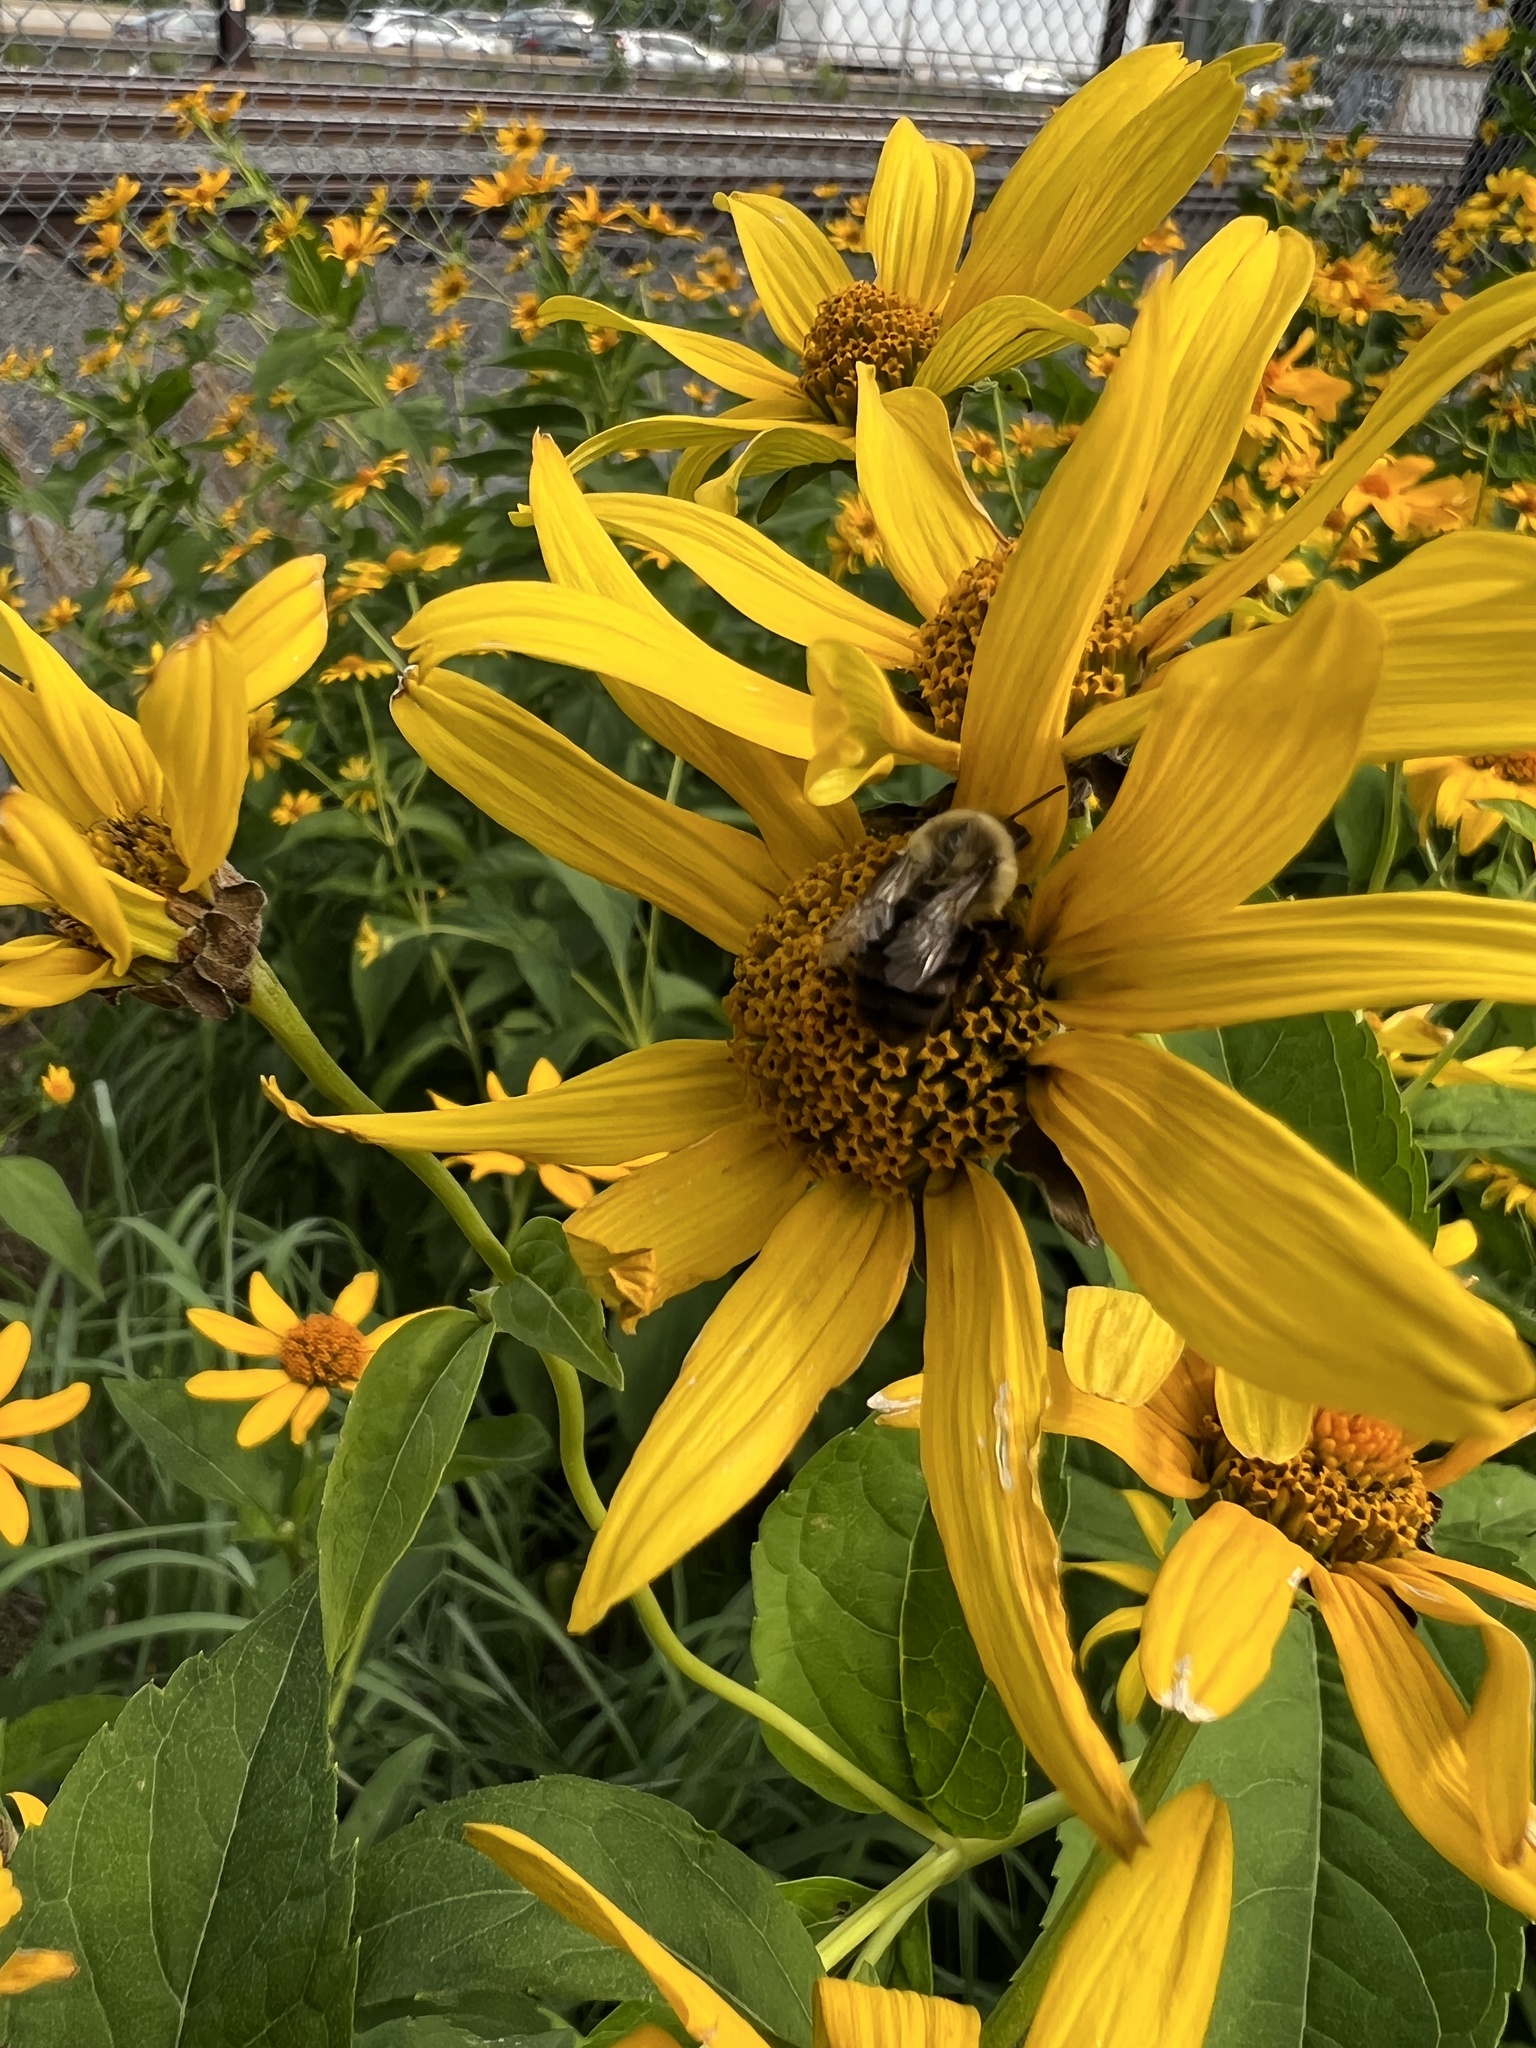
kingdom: Animalia
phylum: Arthropoda
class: Insecta
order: Hymenoptera
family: Apidae
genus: Bombus
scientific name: Bombus impatiens
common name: Common eastern bumble bee
